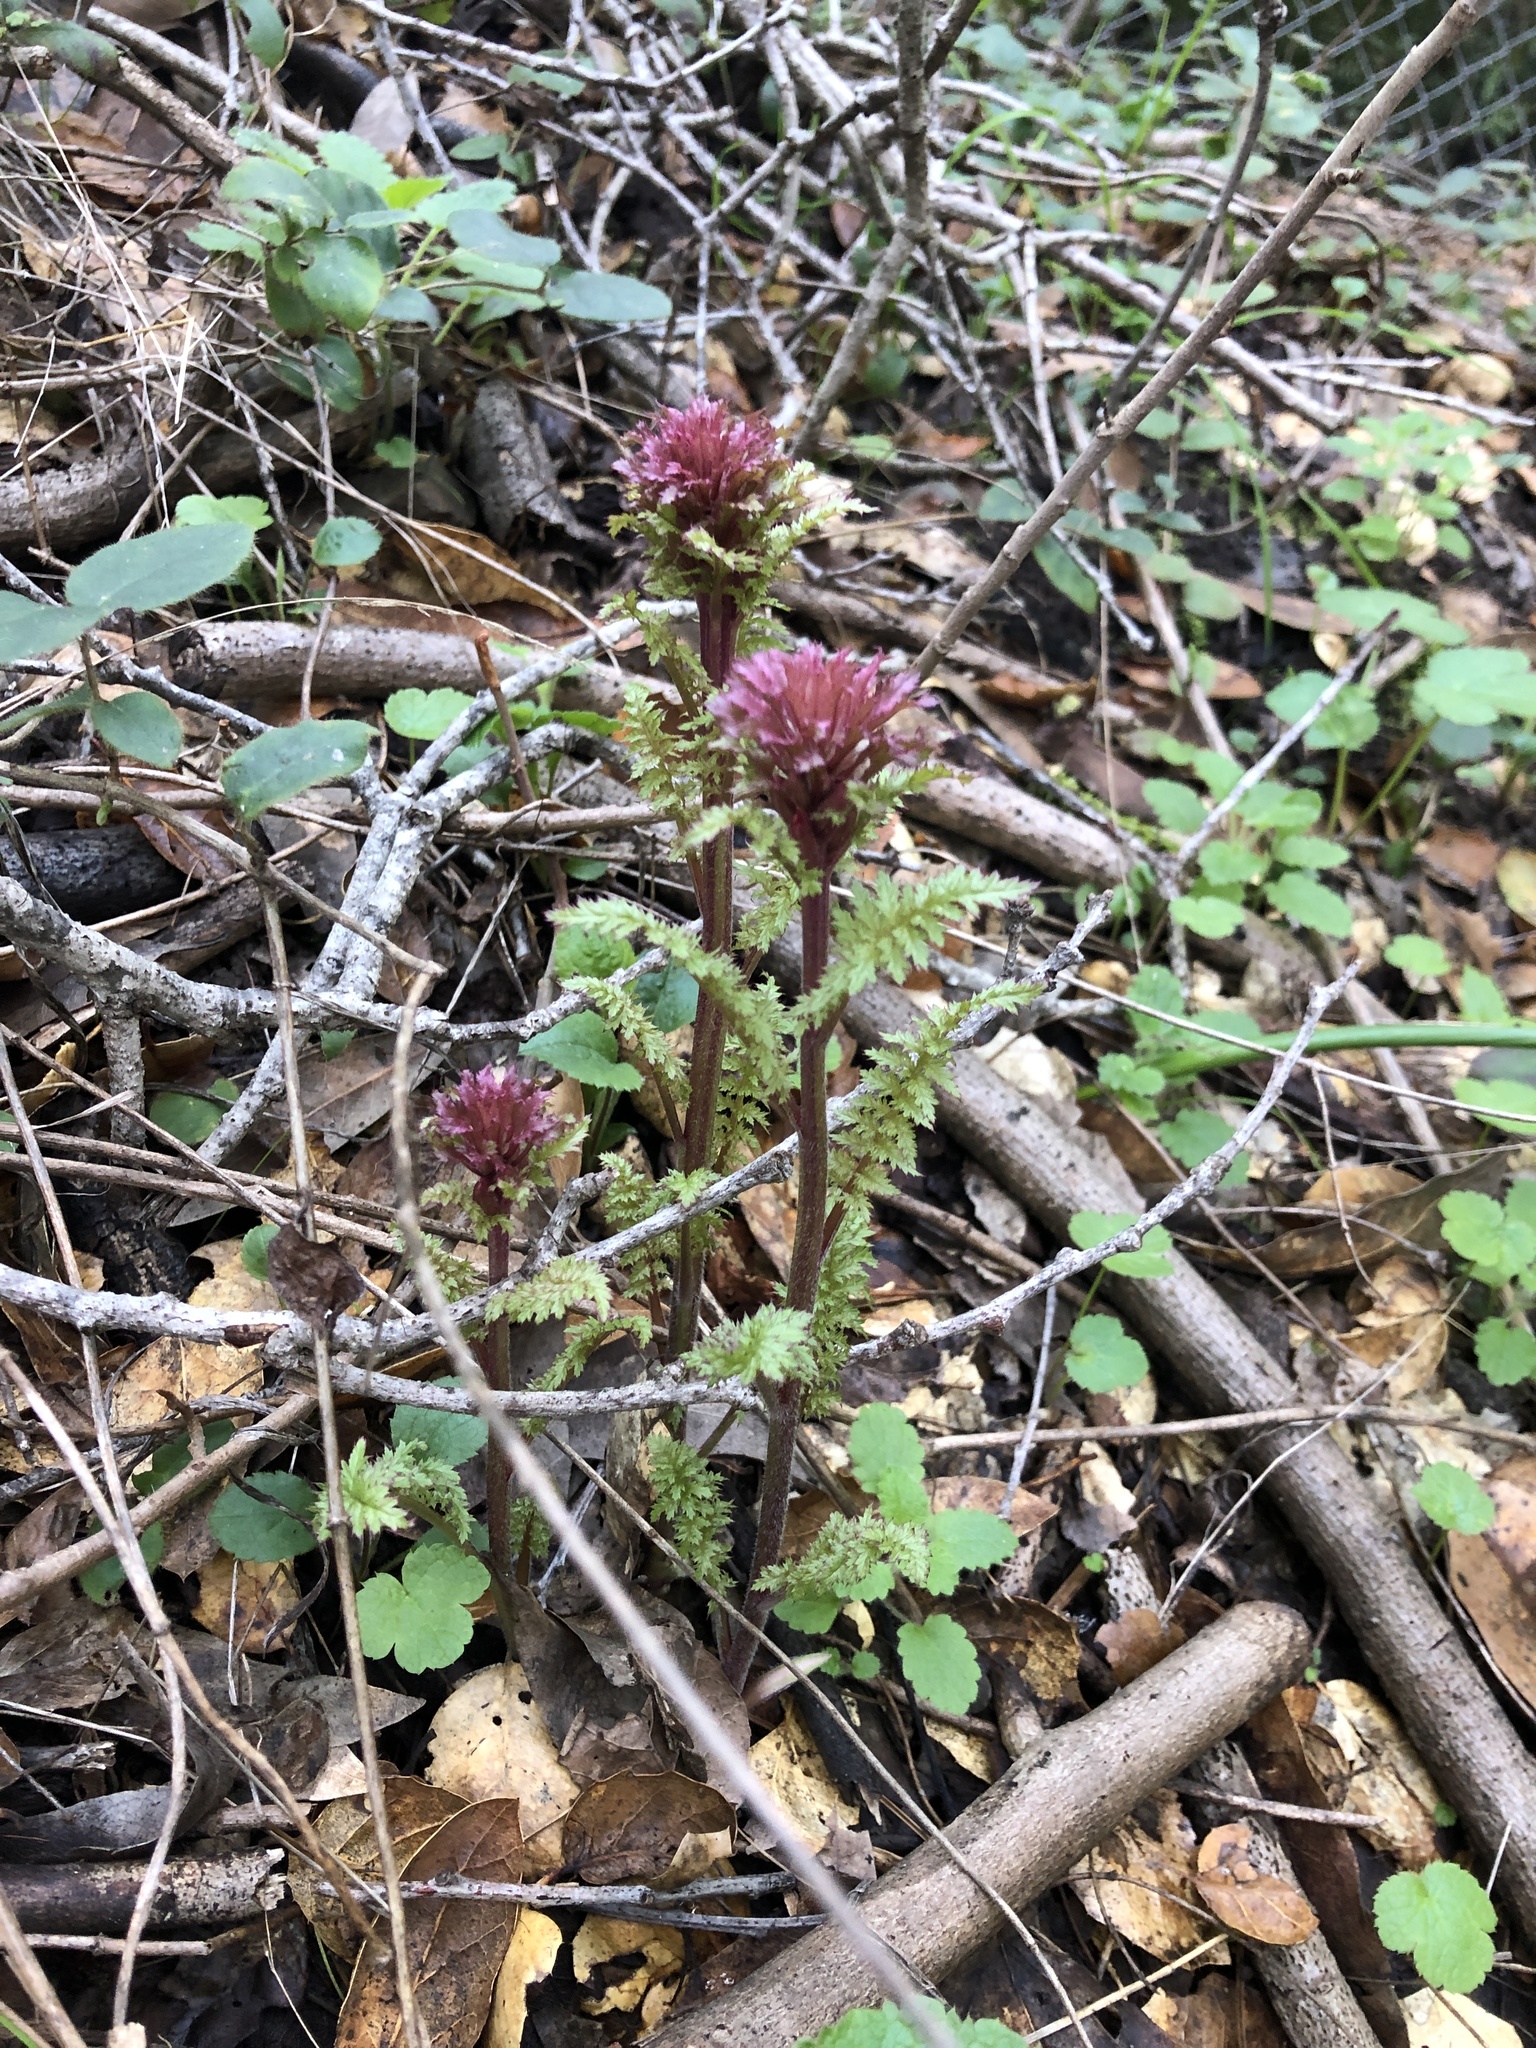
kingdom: Plantae
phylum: Tracheophyta
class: Magnoliopsida
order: Lamiales
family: Orobanchaceae
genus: Pedicularis
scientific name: Pedicularis densiflora
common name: Indian warrior
